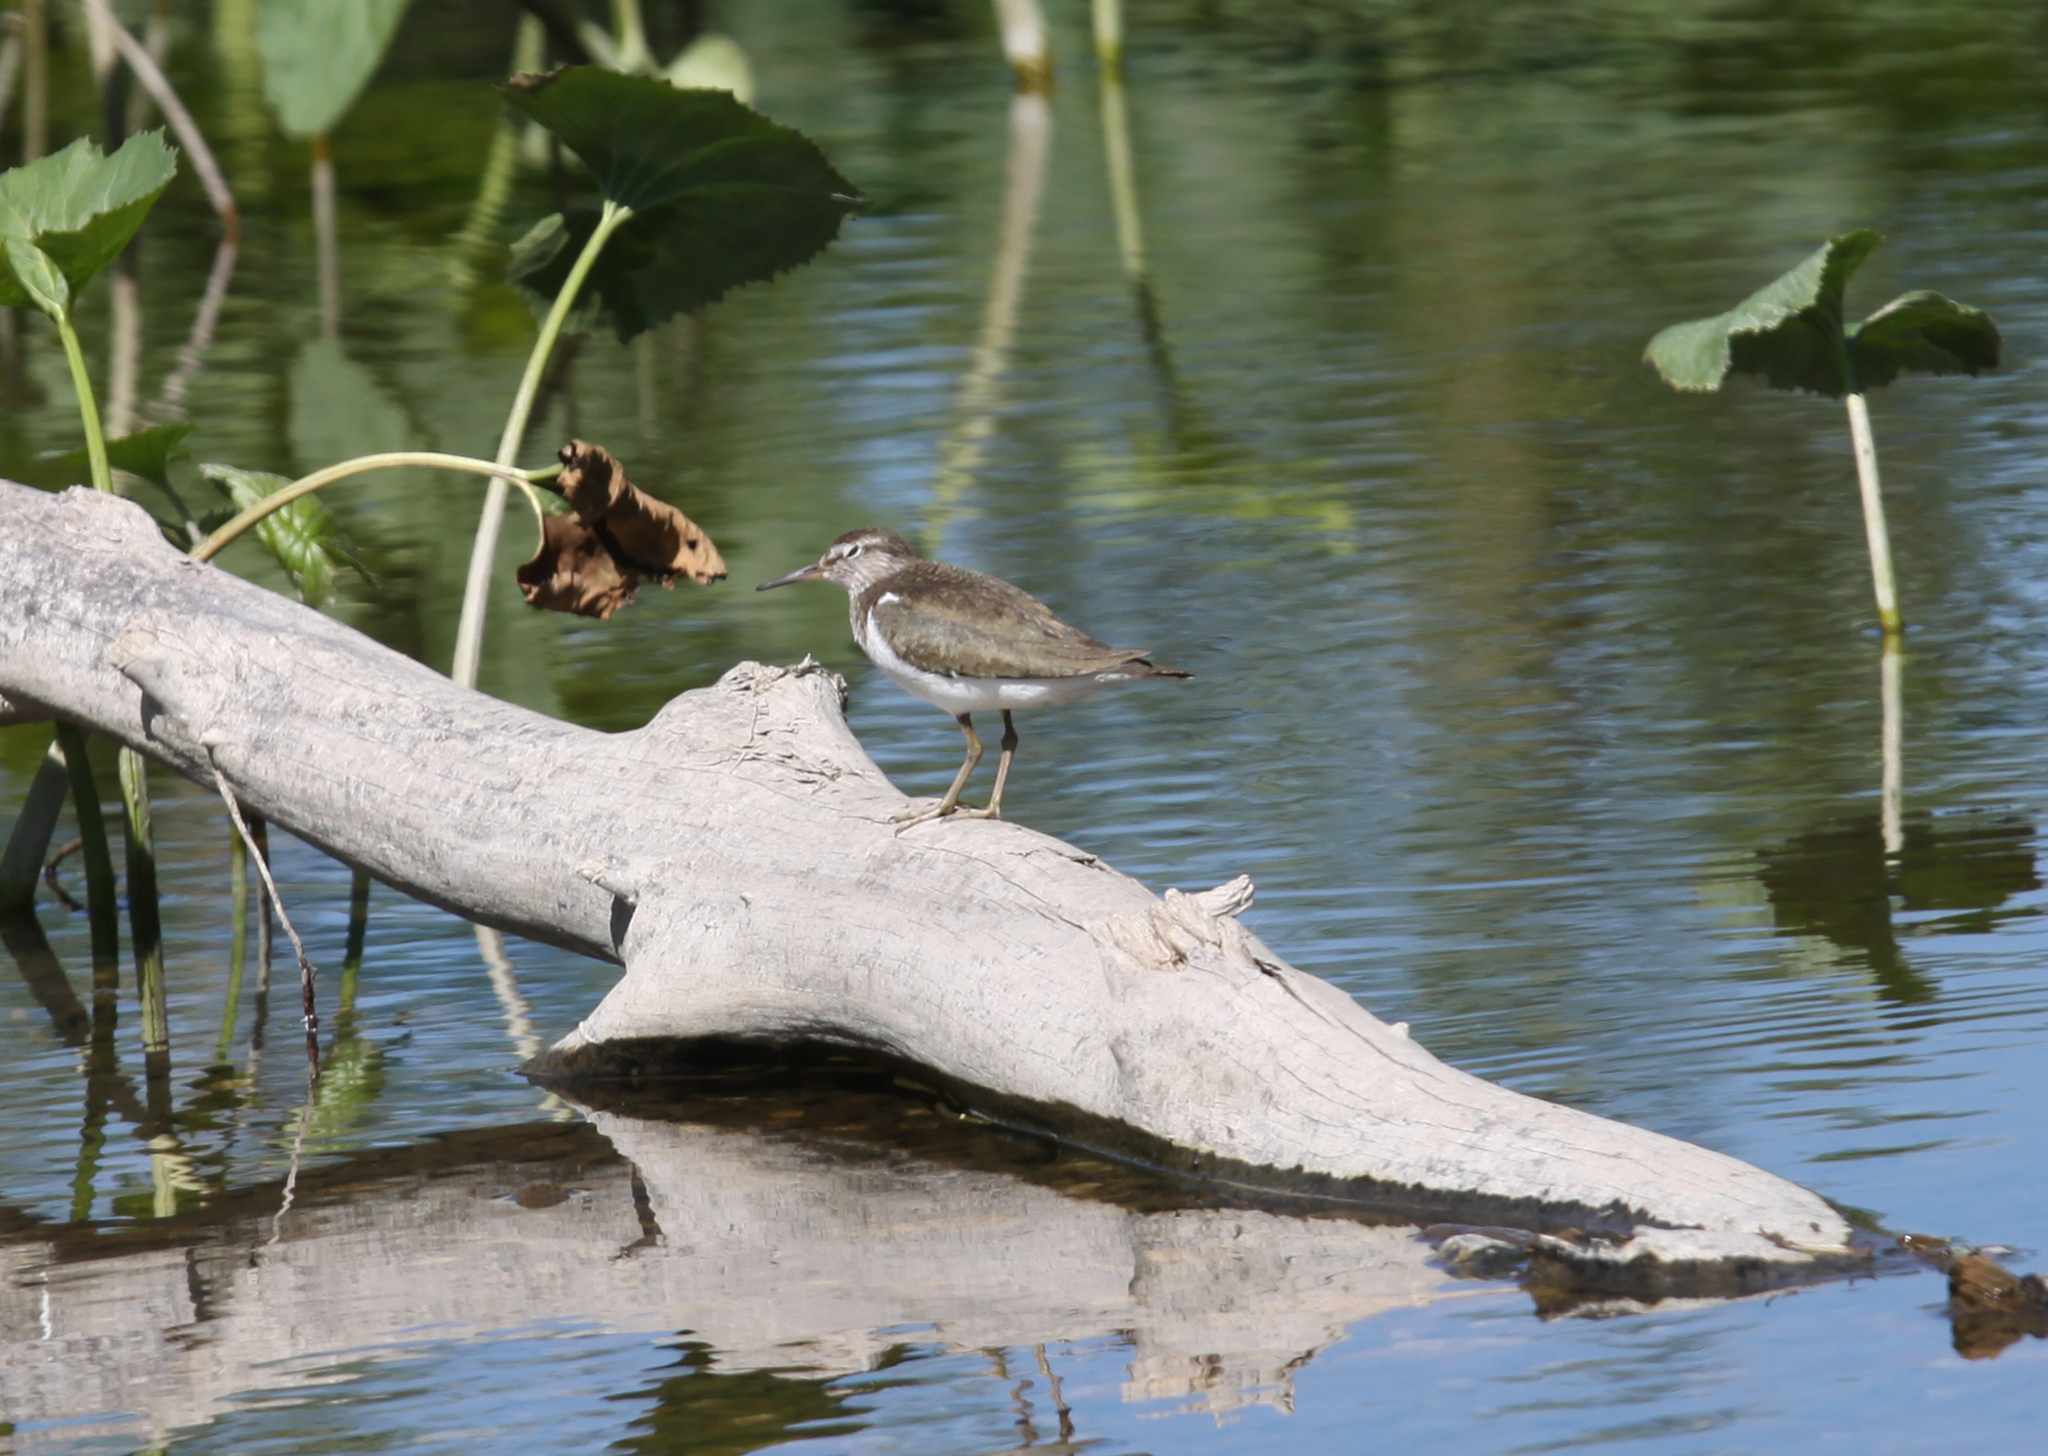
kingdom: Animalia
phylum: Chordata
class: Aves
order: Charadriiformes
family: Scolopacidae
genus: Actitis
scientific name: Actitis hypoleucos
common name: Common sandpiper
